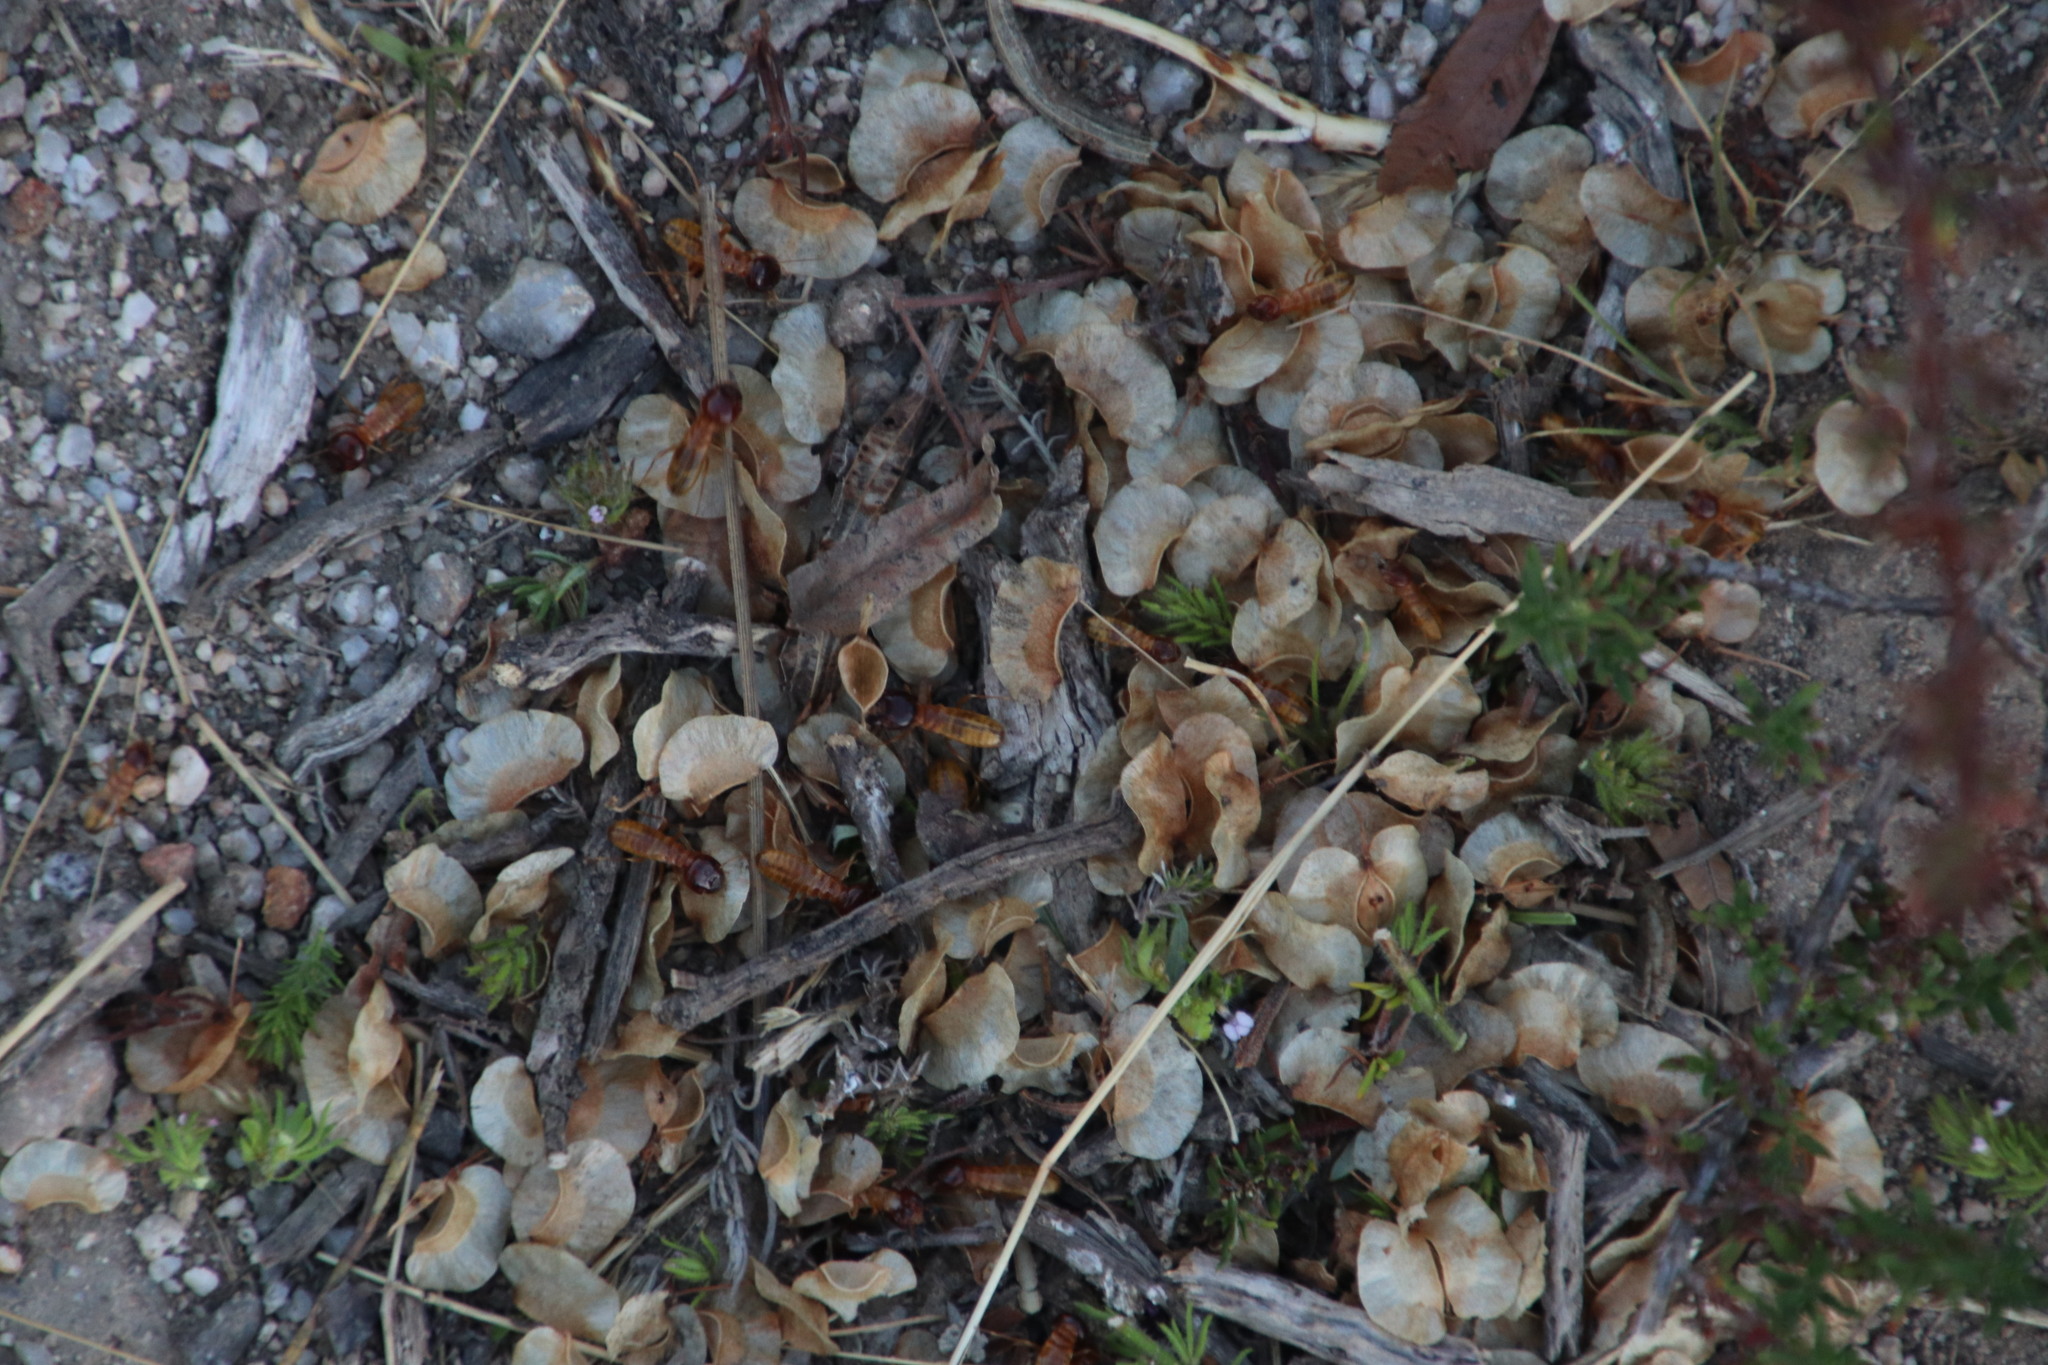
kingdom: Animalia
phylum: Arthropoda
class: Insecta
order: Blattodea
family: Hodotermitidae
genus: Microhodotermes
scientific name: Microhodotermes viator
